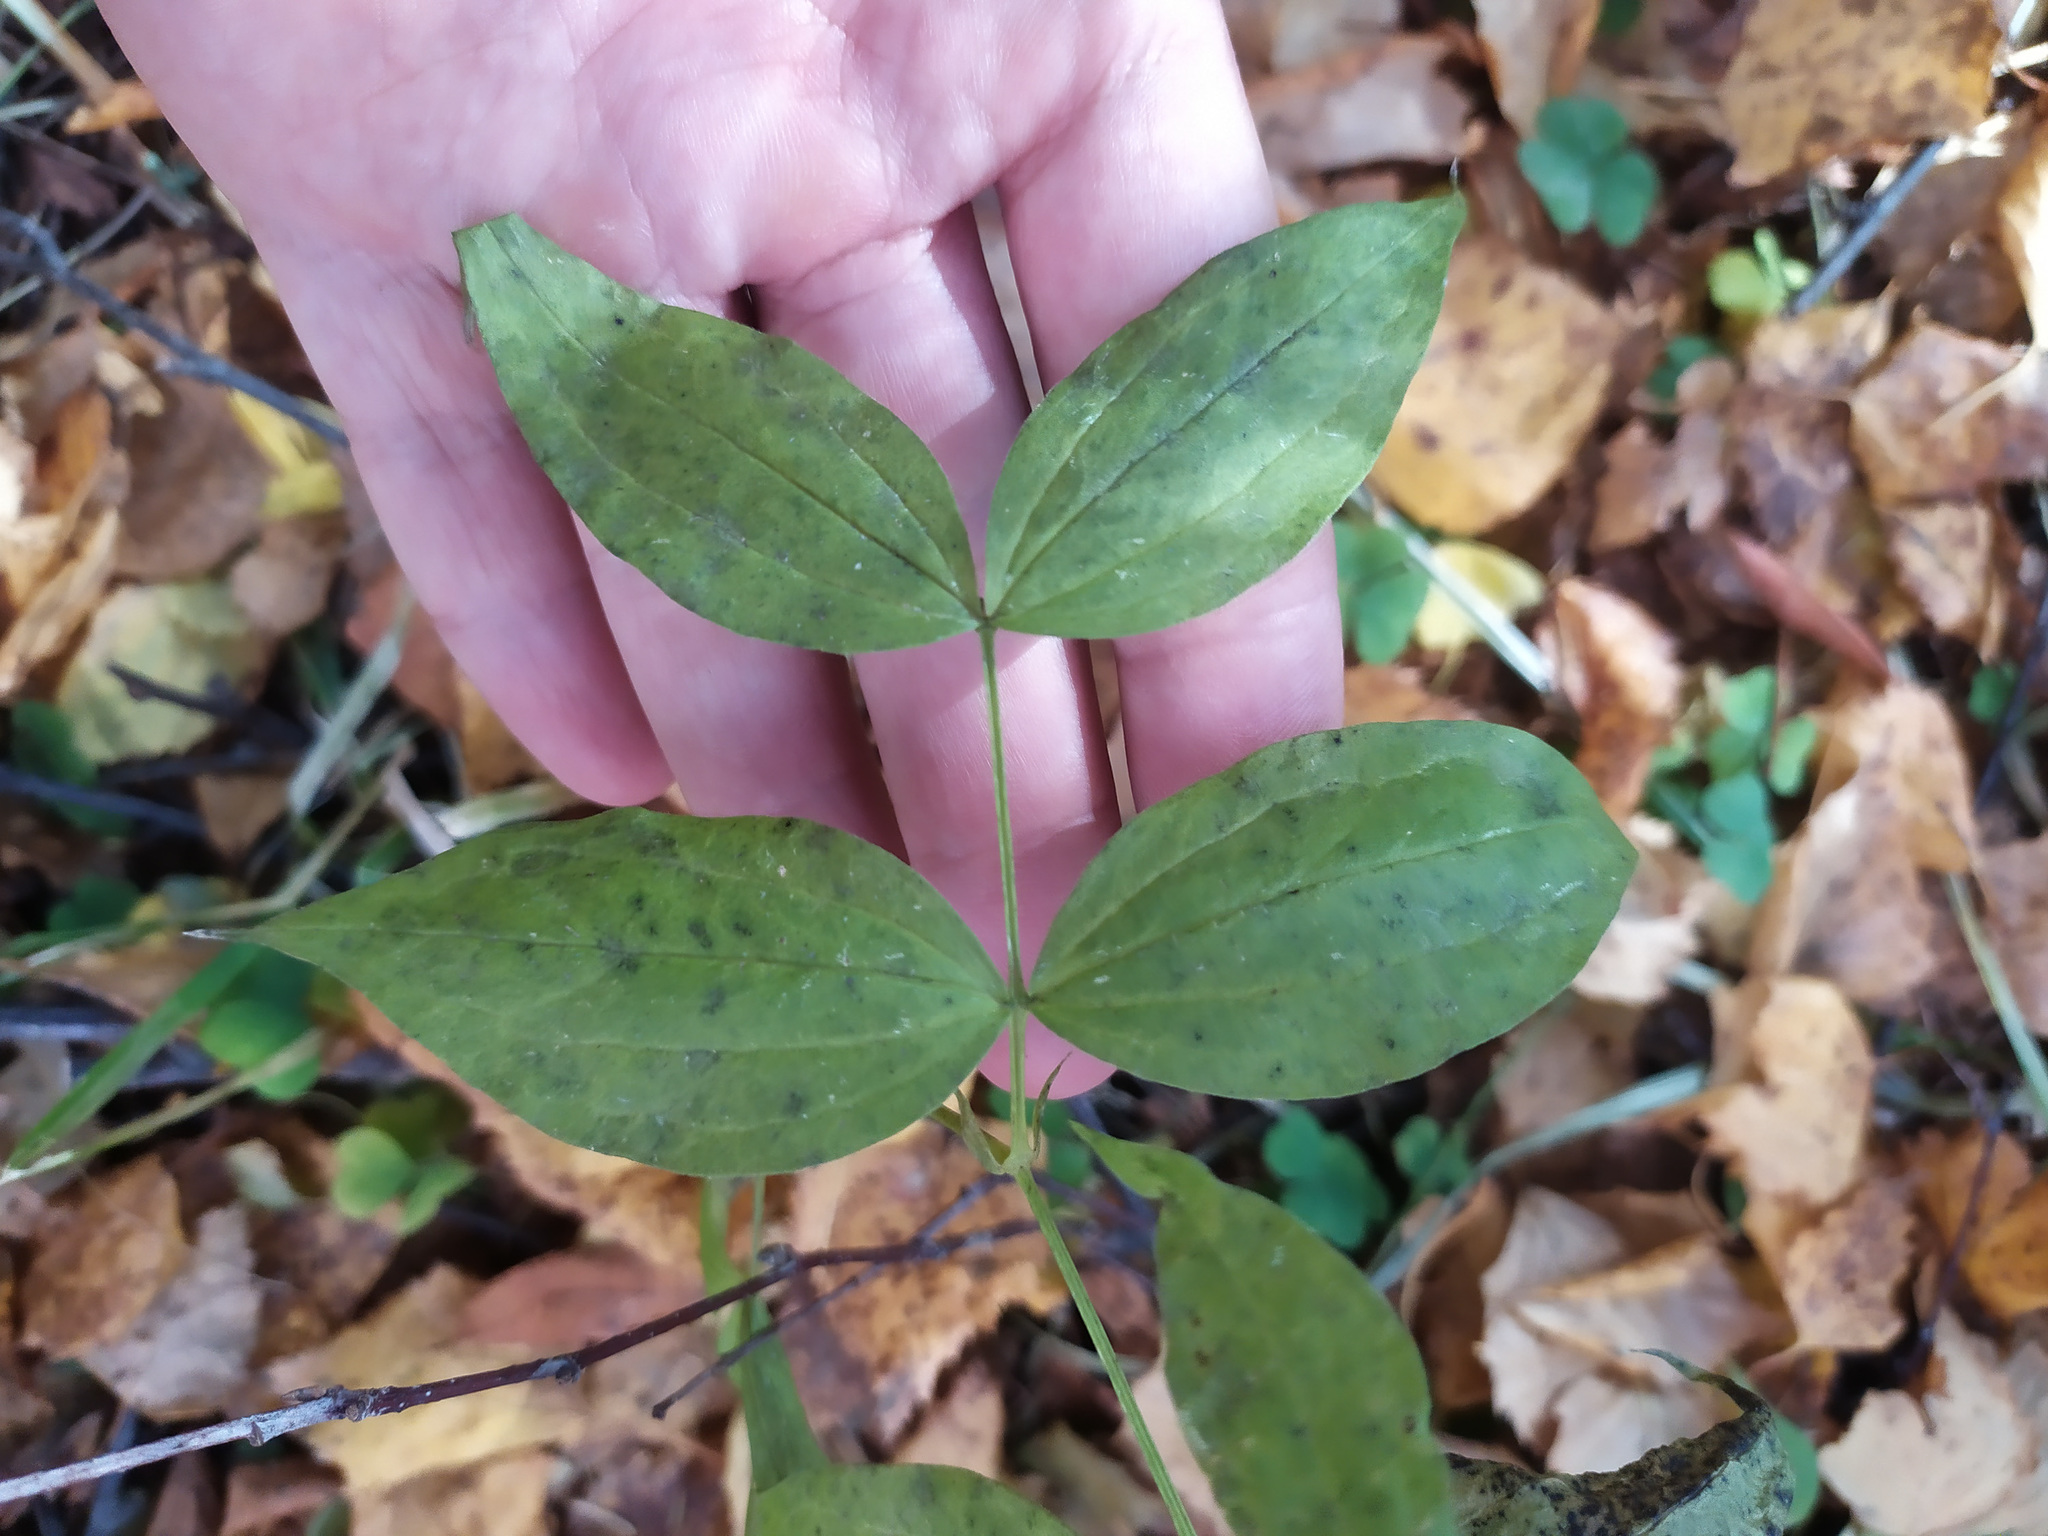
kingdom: Plantae
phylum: Tracheophyta
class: Magnoliopsida
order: Fabales
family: Fabaceae
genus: Lathyrus
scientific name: Lathyrus vernus
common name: Spring pea
